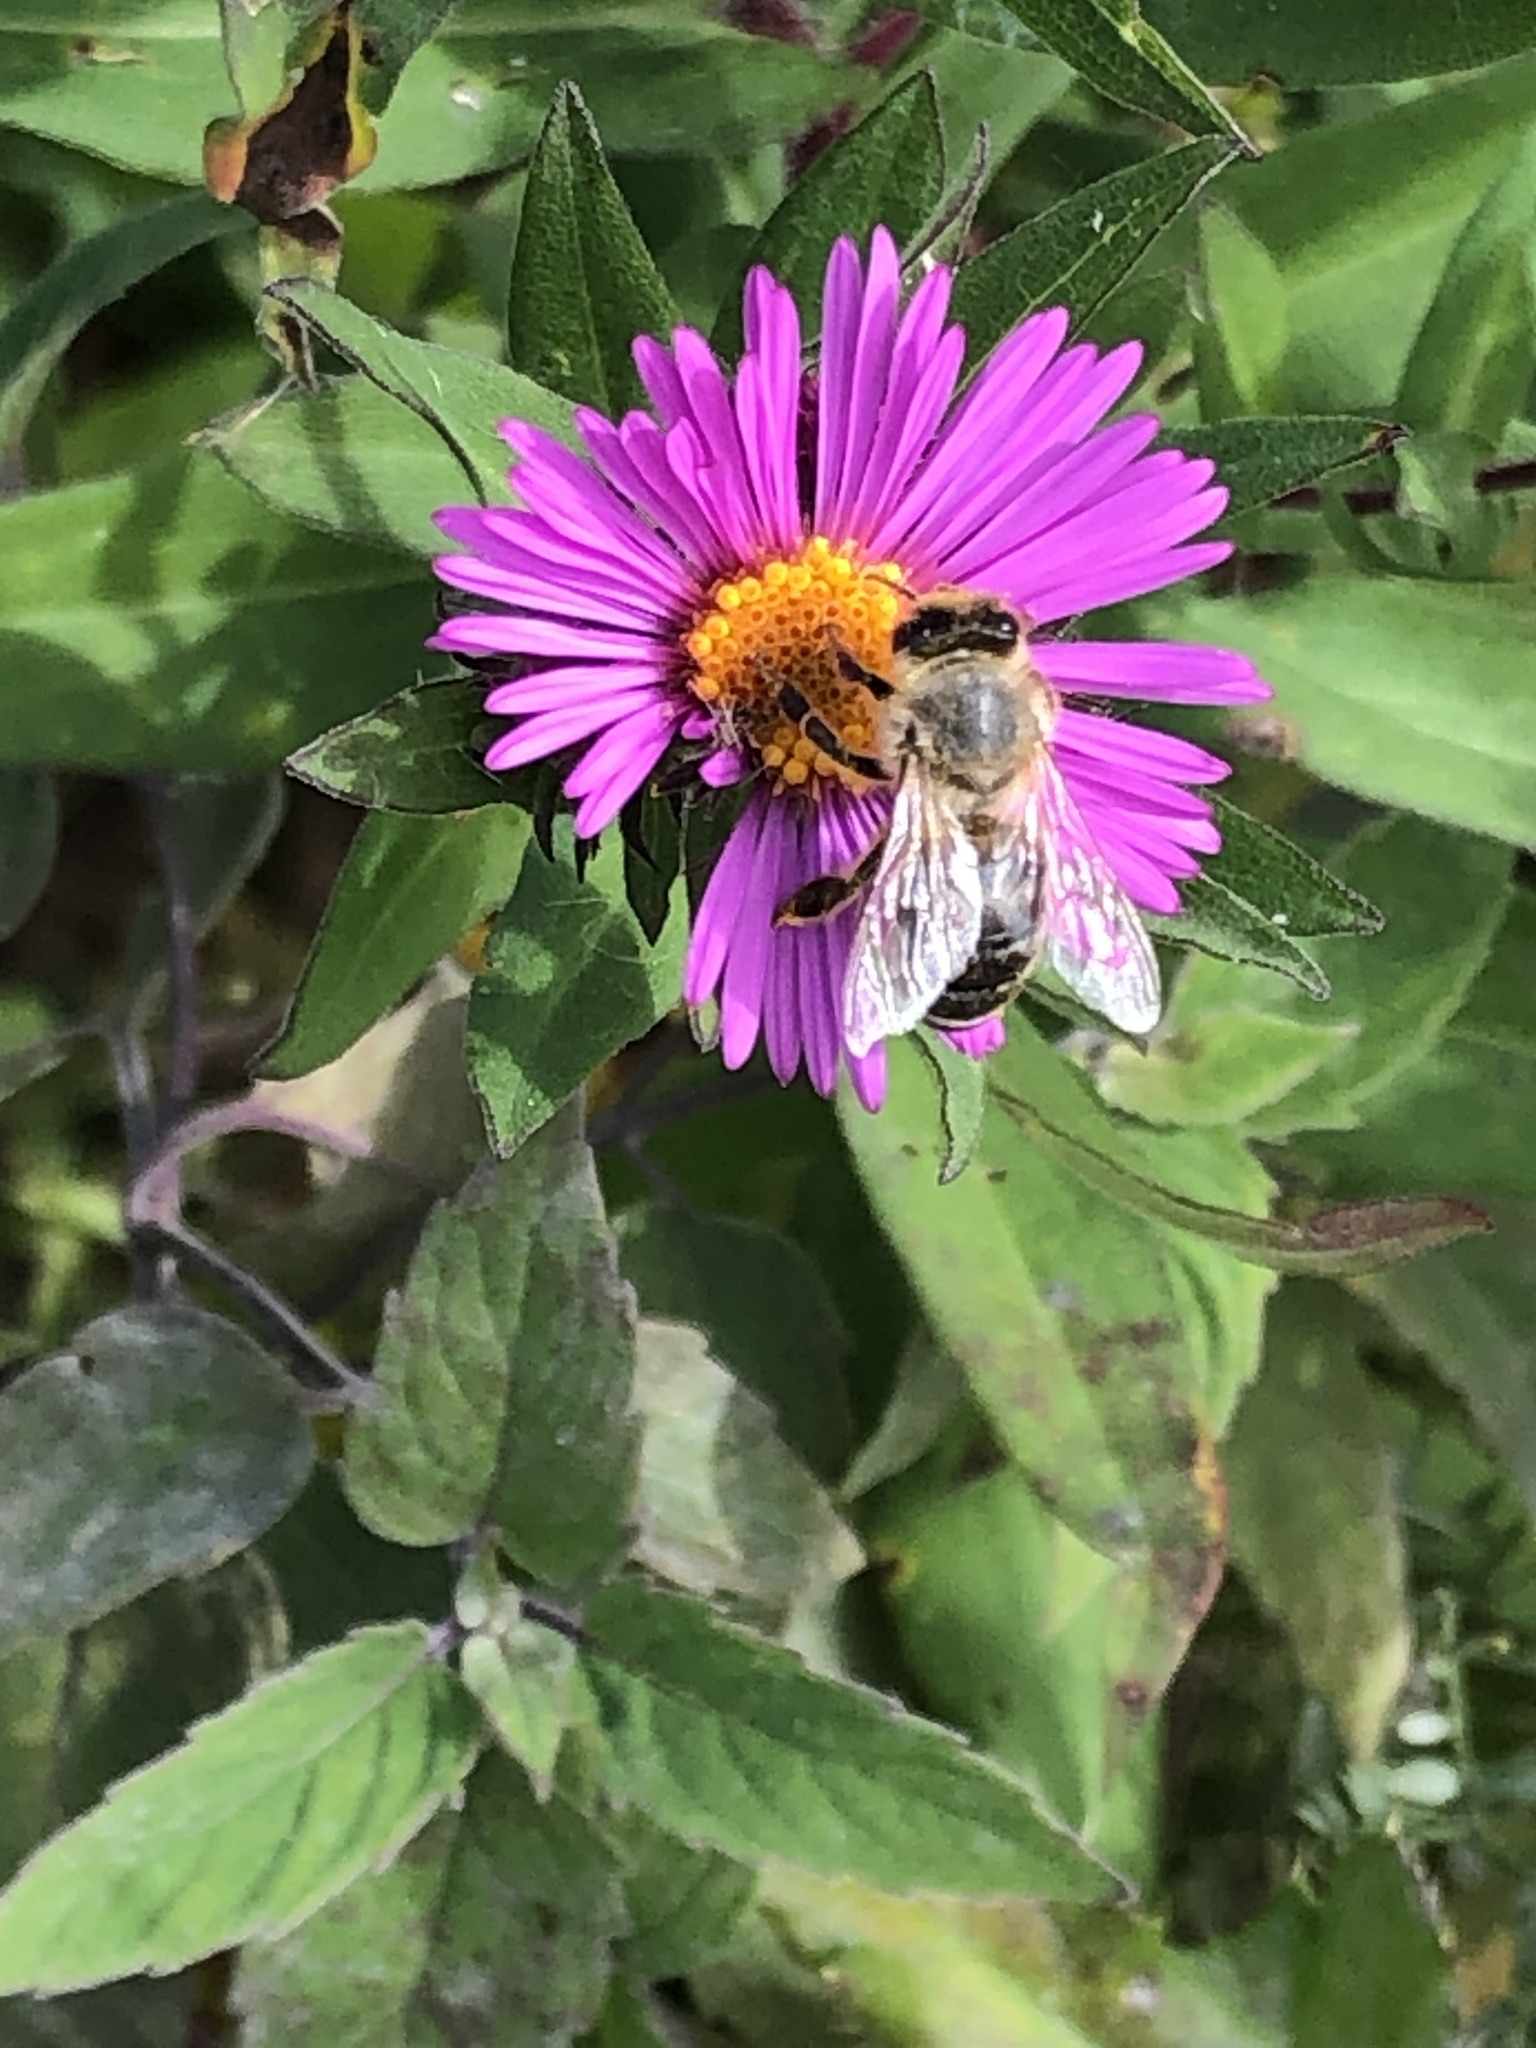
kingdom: Animalia
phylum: Arthropoda
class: Insecta
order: Hymenoptera
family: Apidae
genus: Apis
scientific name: Apis mellifera
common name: Honey bee
